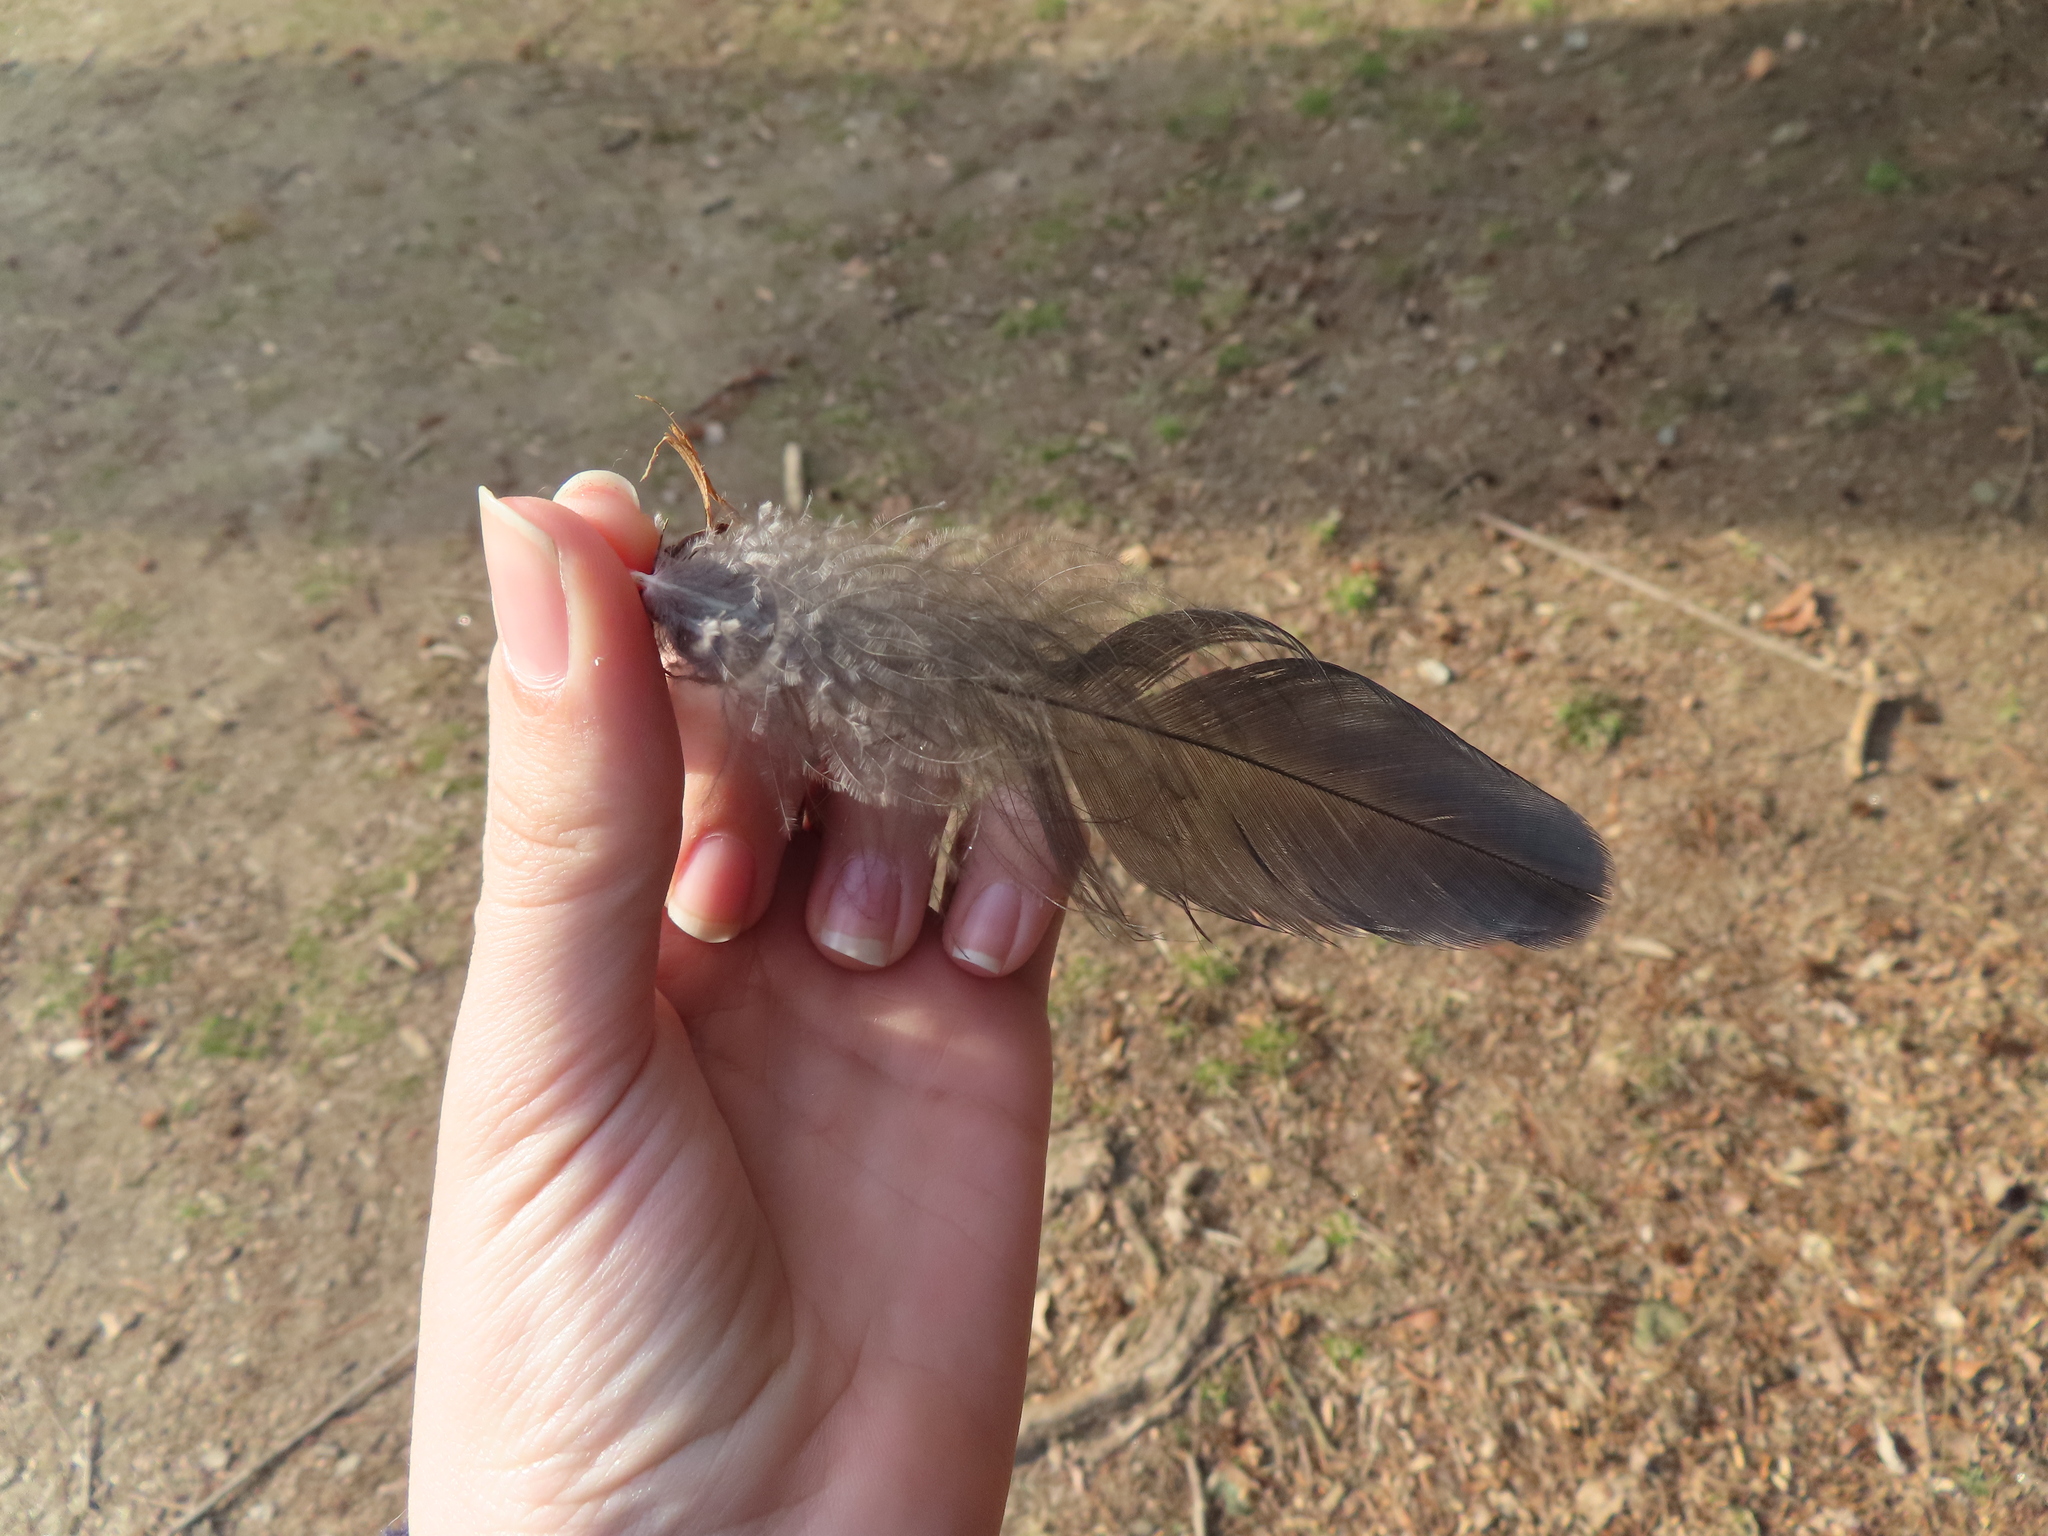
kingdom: Animalia
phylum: Chordata
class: Aves
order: Passeriformes
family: Corvidae
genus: Corvus
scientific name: Corvus corax
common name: Common raven
